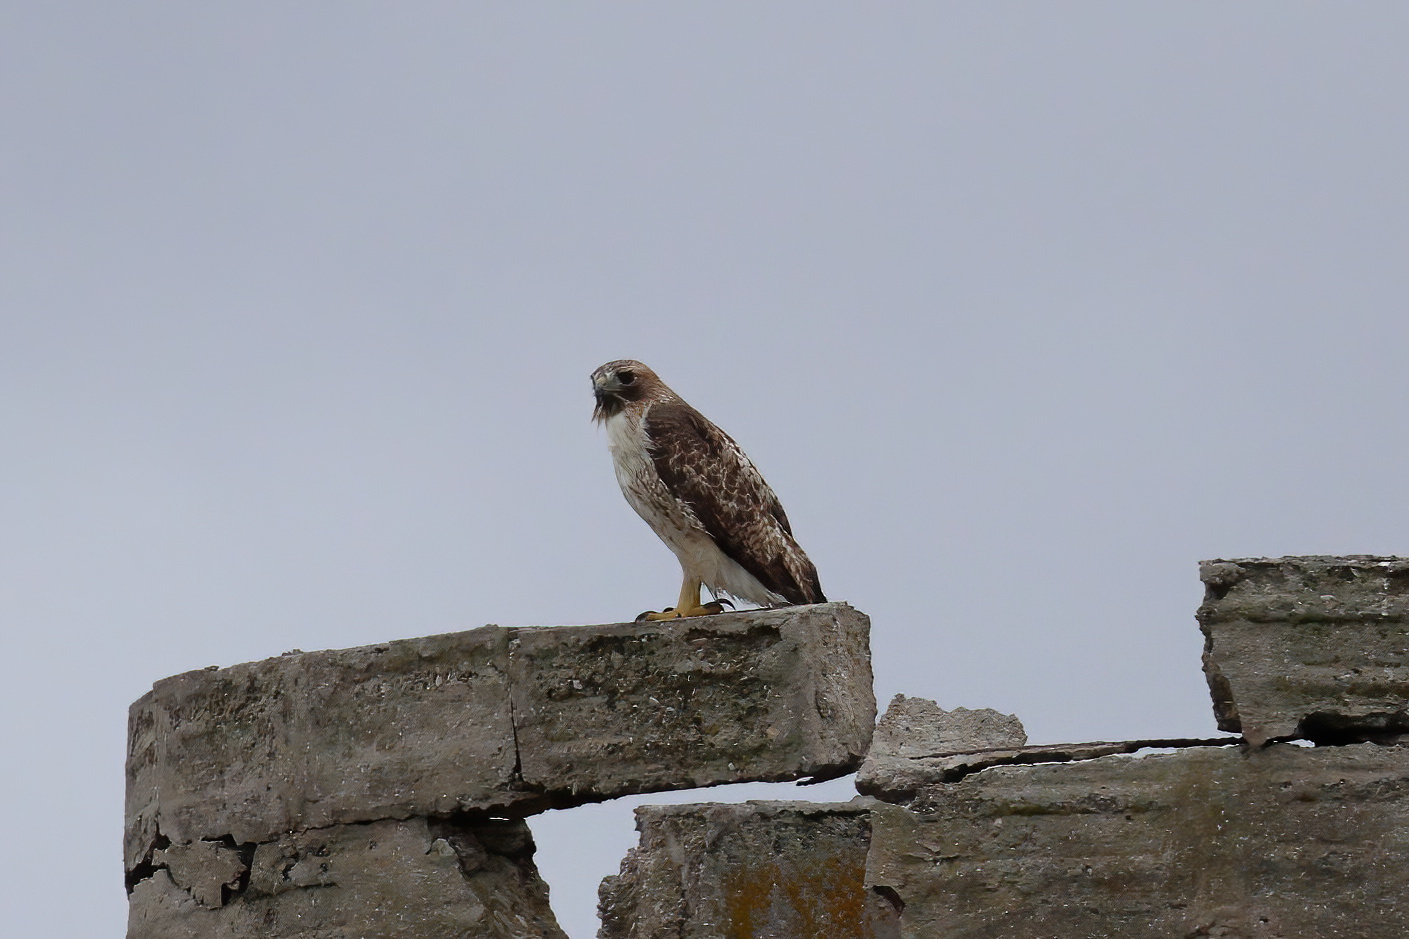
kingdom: Animalia
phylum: Chordata
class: Aves
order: Accipitriformes
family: Accipitridae
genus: Buteo
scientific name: Buteo jamaicensis
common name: Red-tailed hawk
